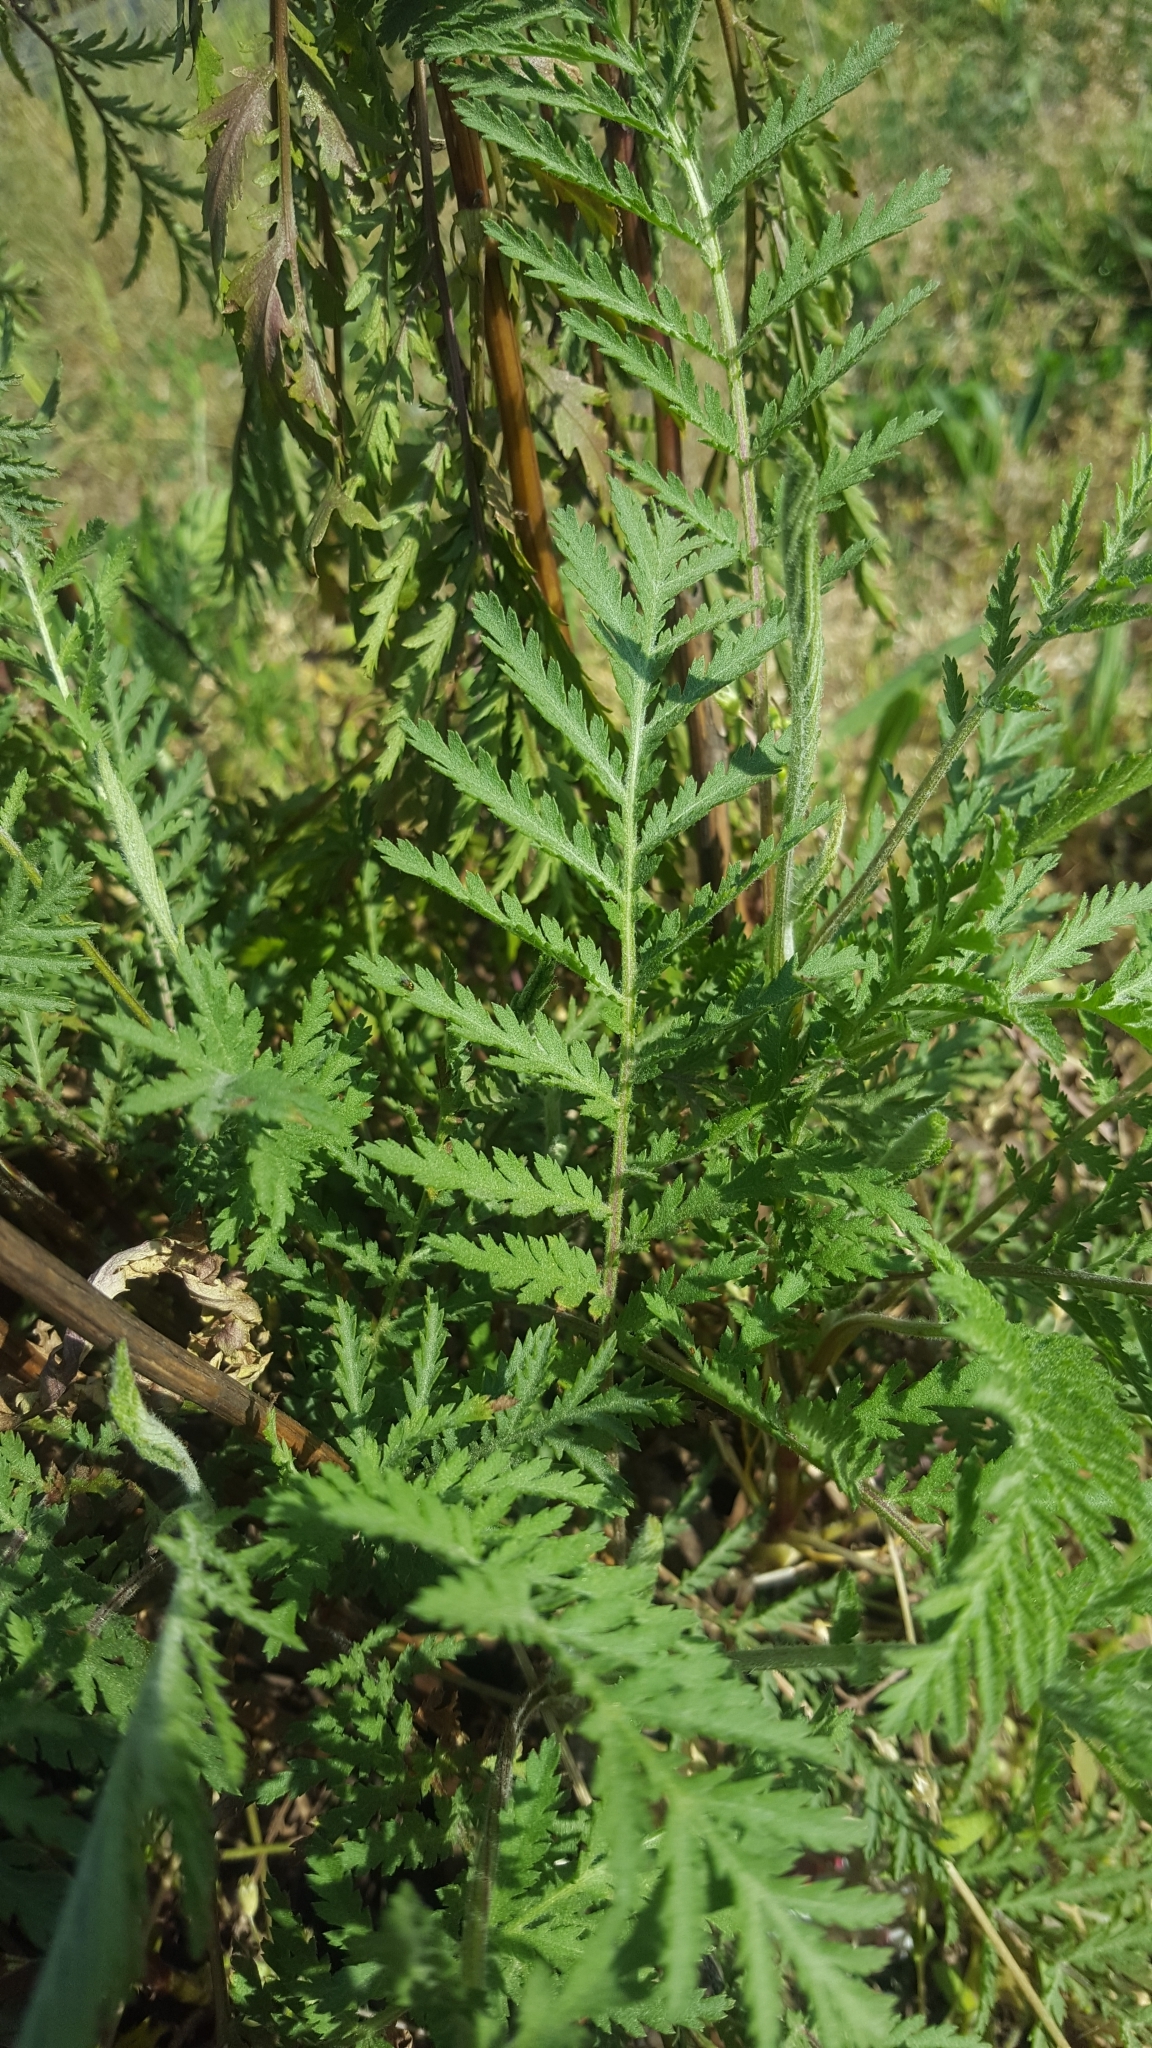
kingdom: Plantae
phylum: Tracheophyta
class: Magnoliopsida
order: Asterales
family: Asteraceae
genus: Tanacetum
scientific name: Tanacetum vulgare
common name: Common tansy
